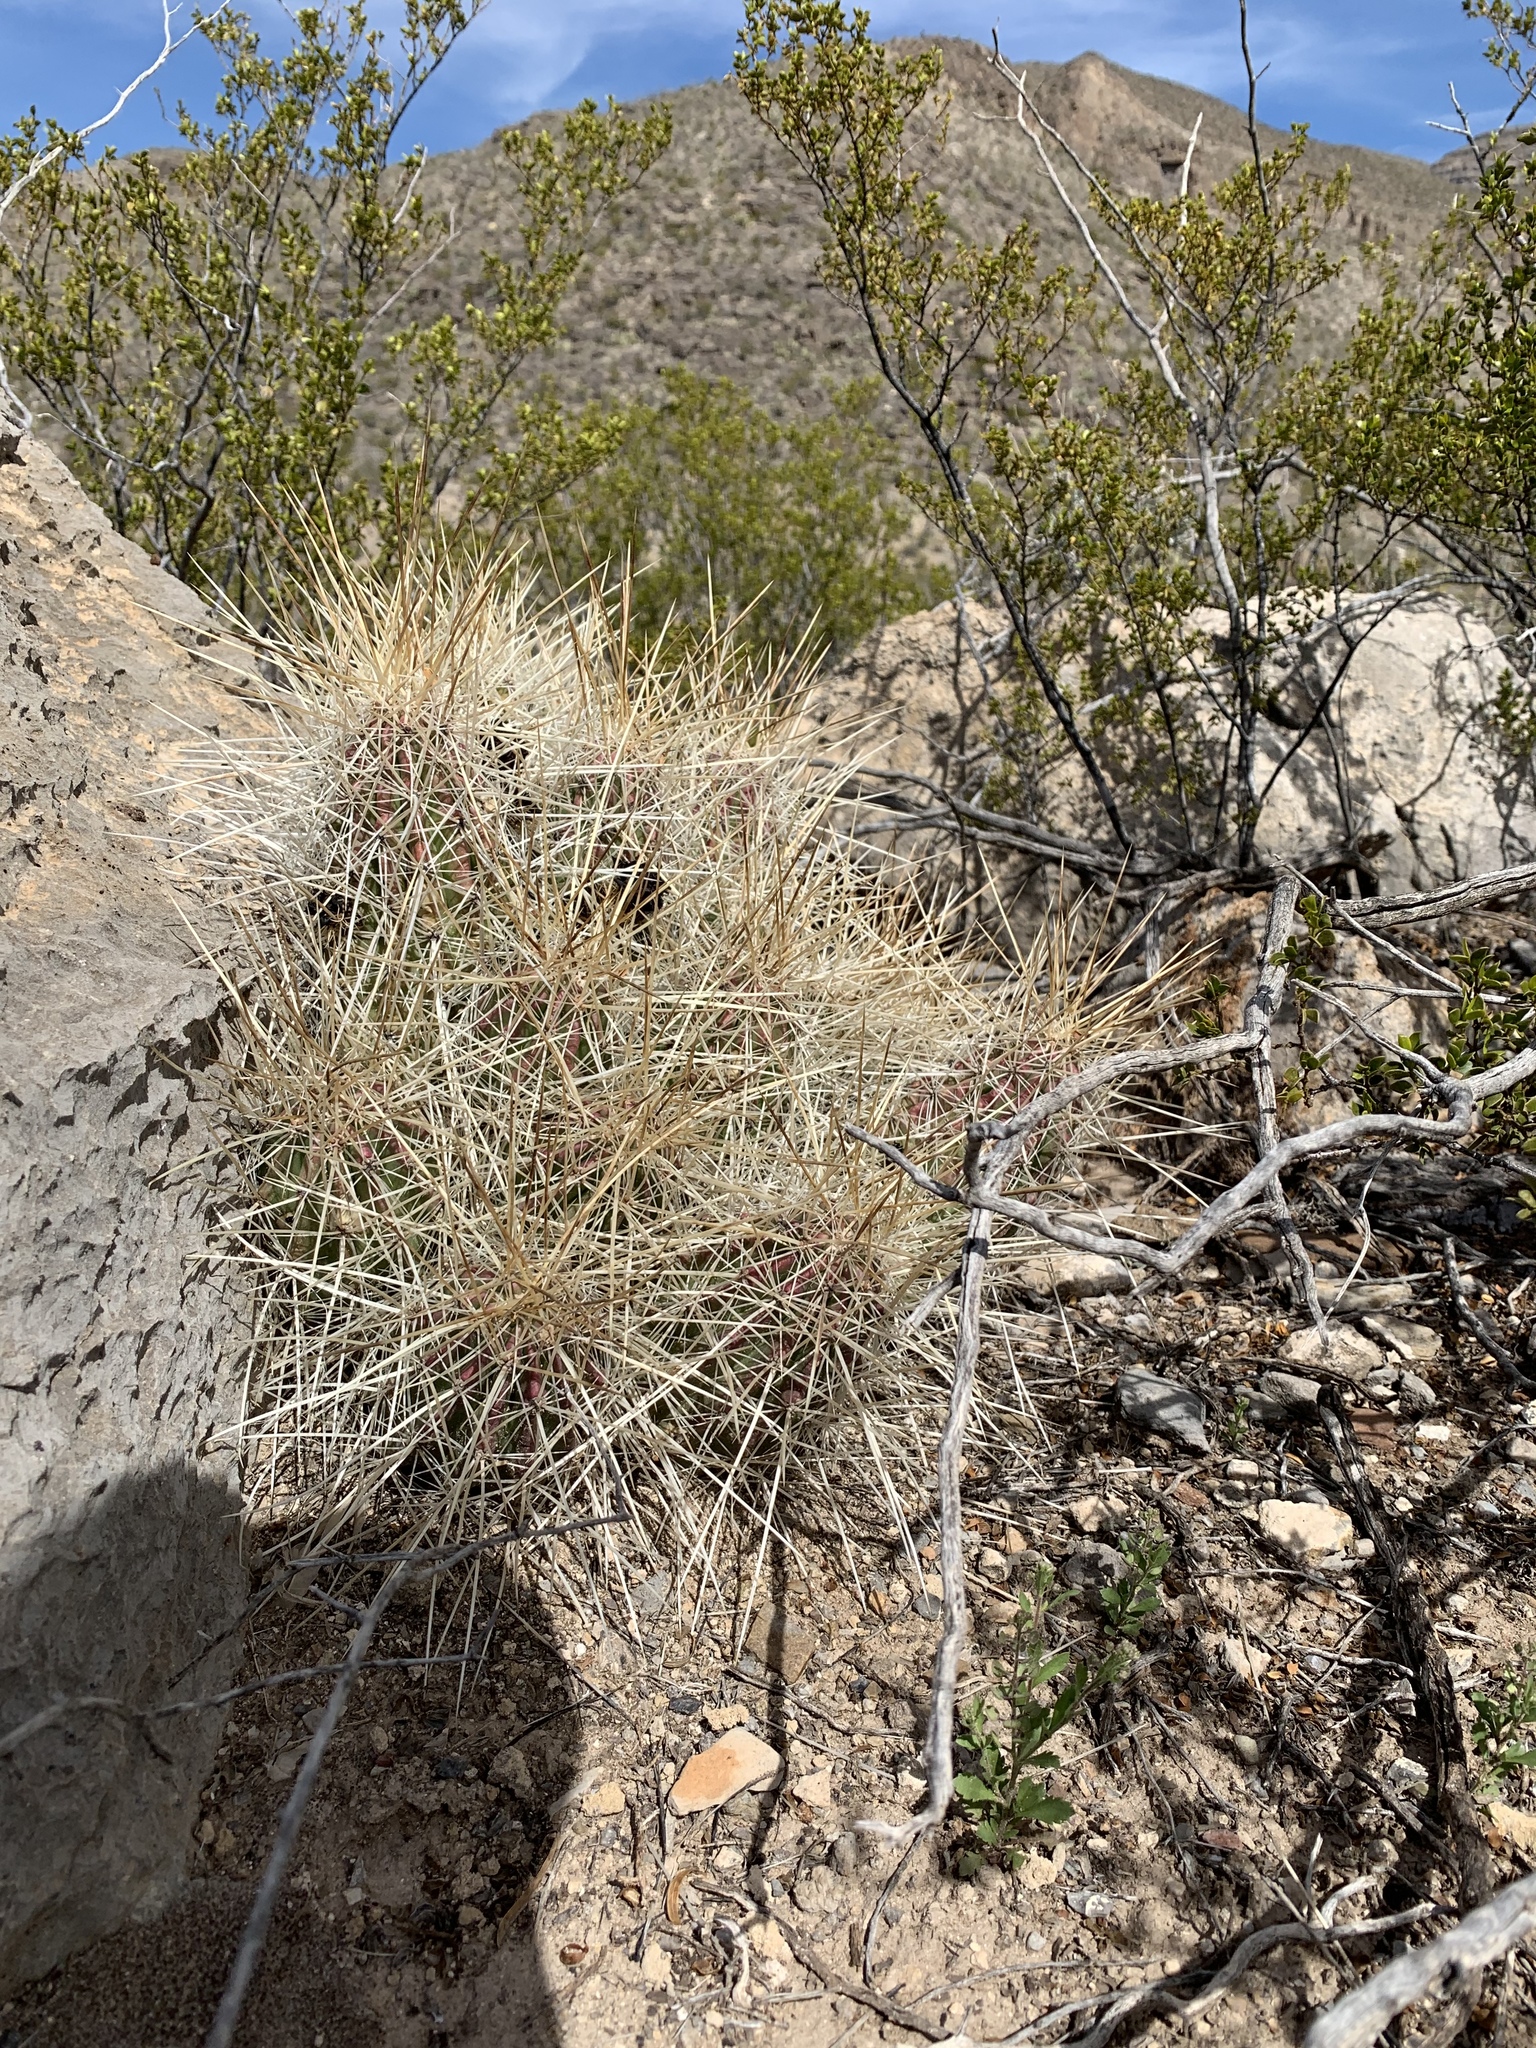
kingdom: Plantae
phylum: Tracheophyta
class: Magnoliopsida
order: Caryophyllales
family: Cactaceae
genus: Echinocereus
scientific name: Echinocereus stramineus
